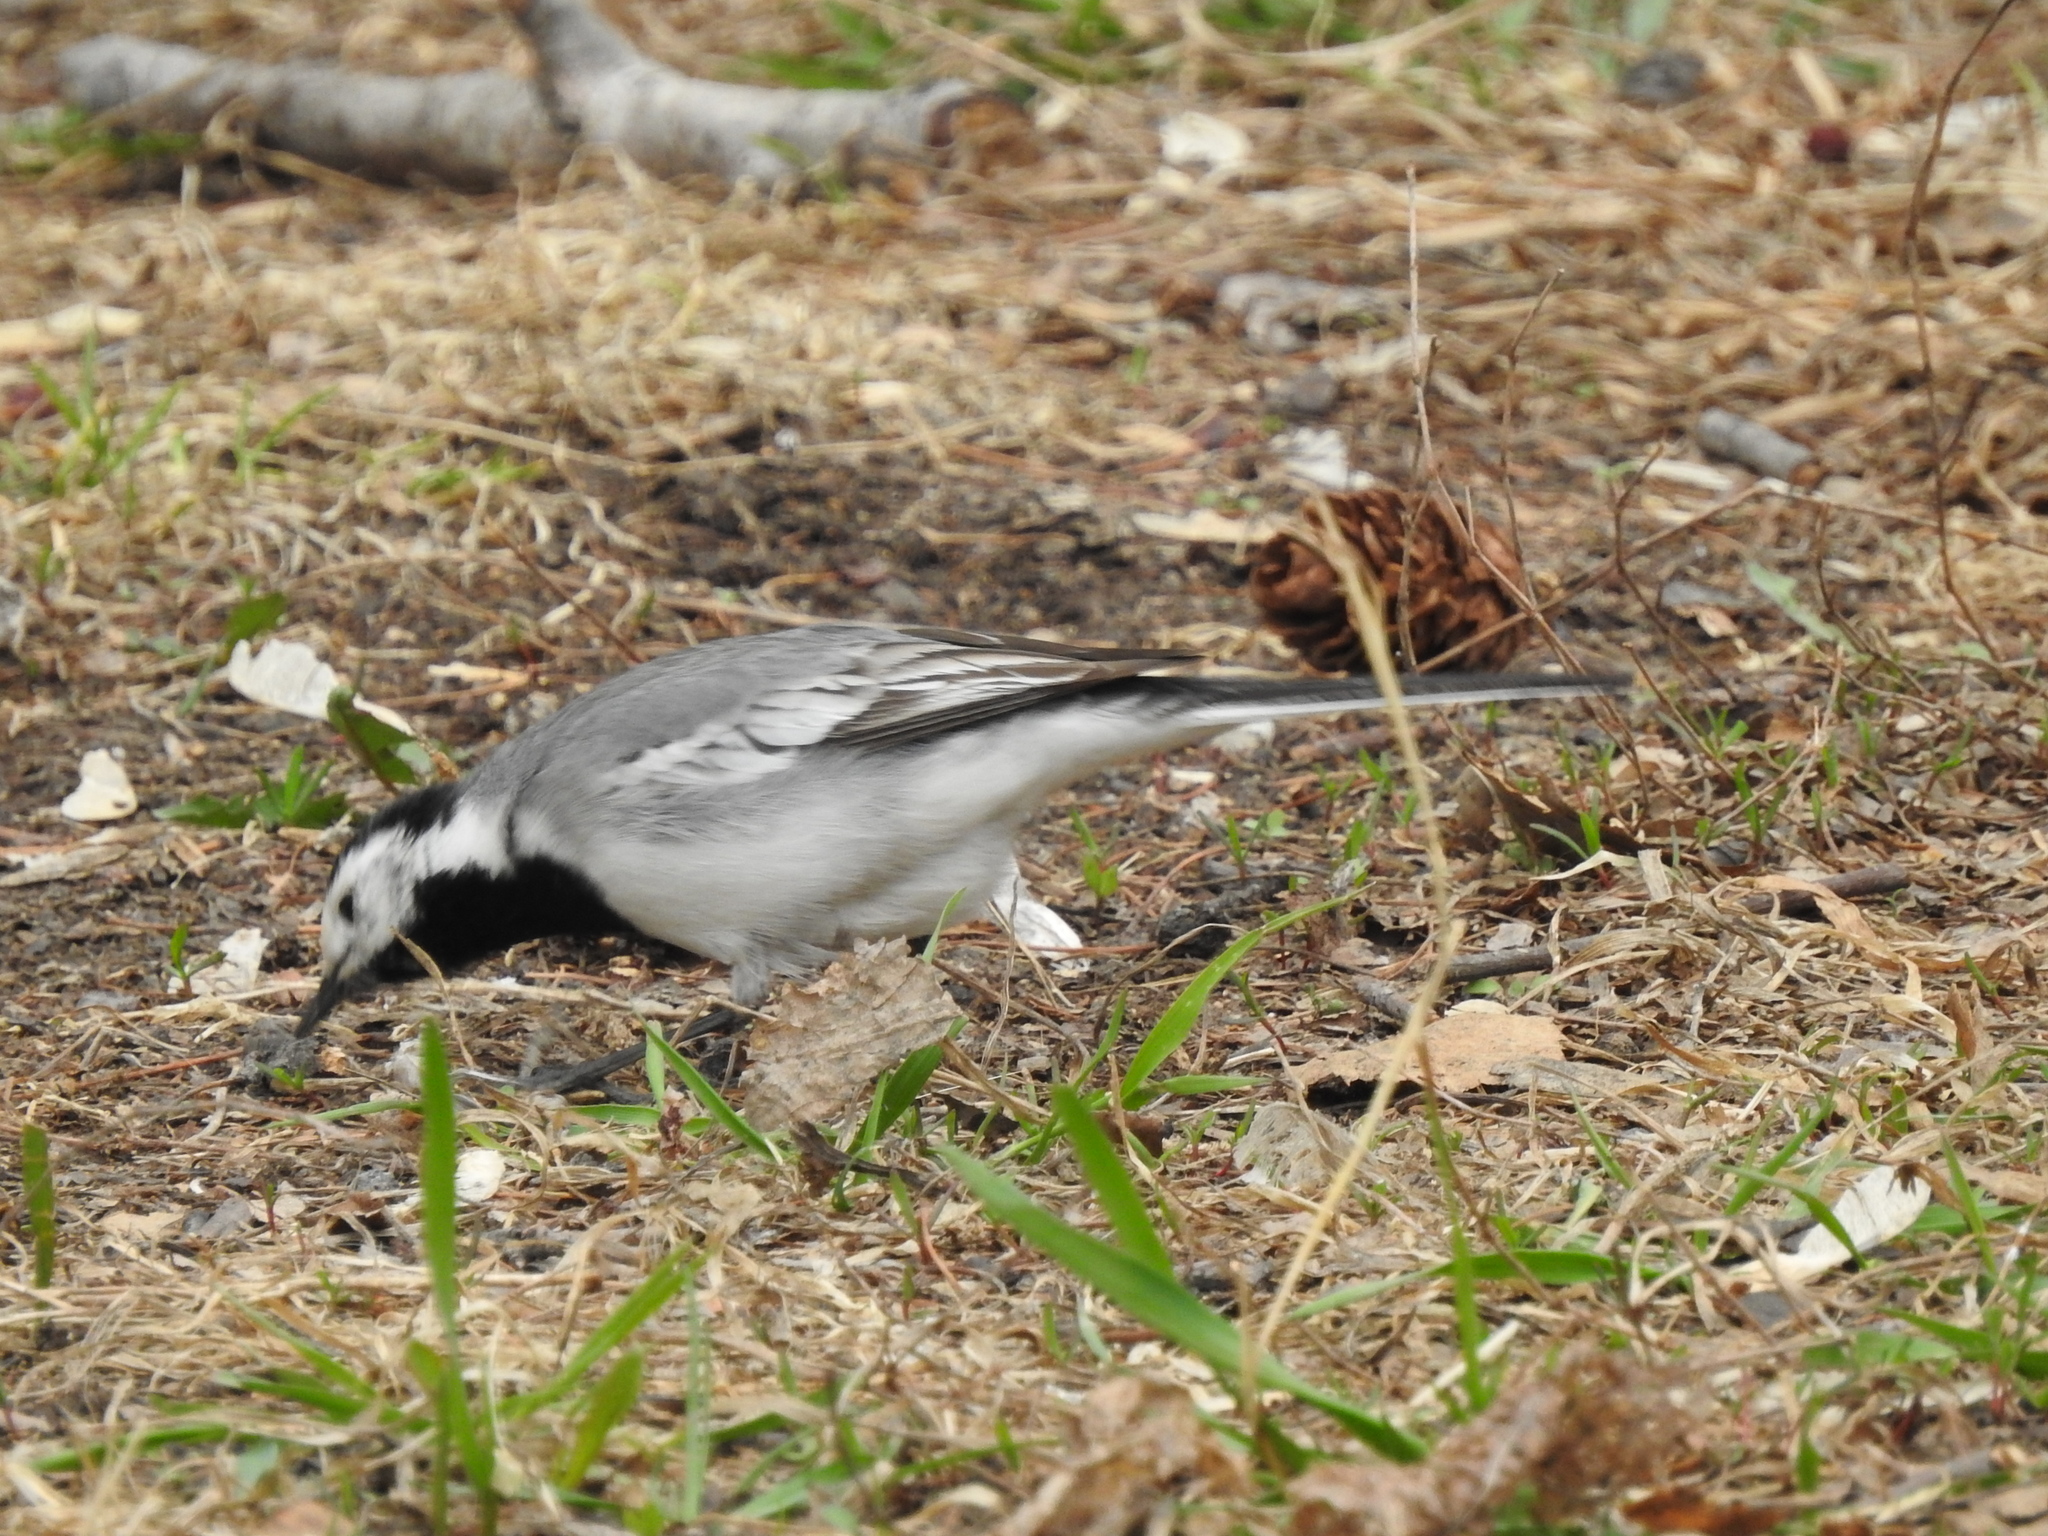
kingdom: Animalia
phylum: Chordata
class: Aves
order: Passeriformes
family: Motacillidae
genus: Motacilla
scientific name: Motacilla alba
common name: White wagtail
